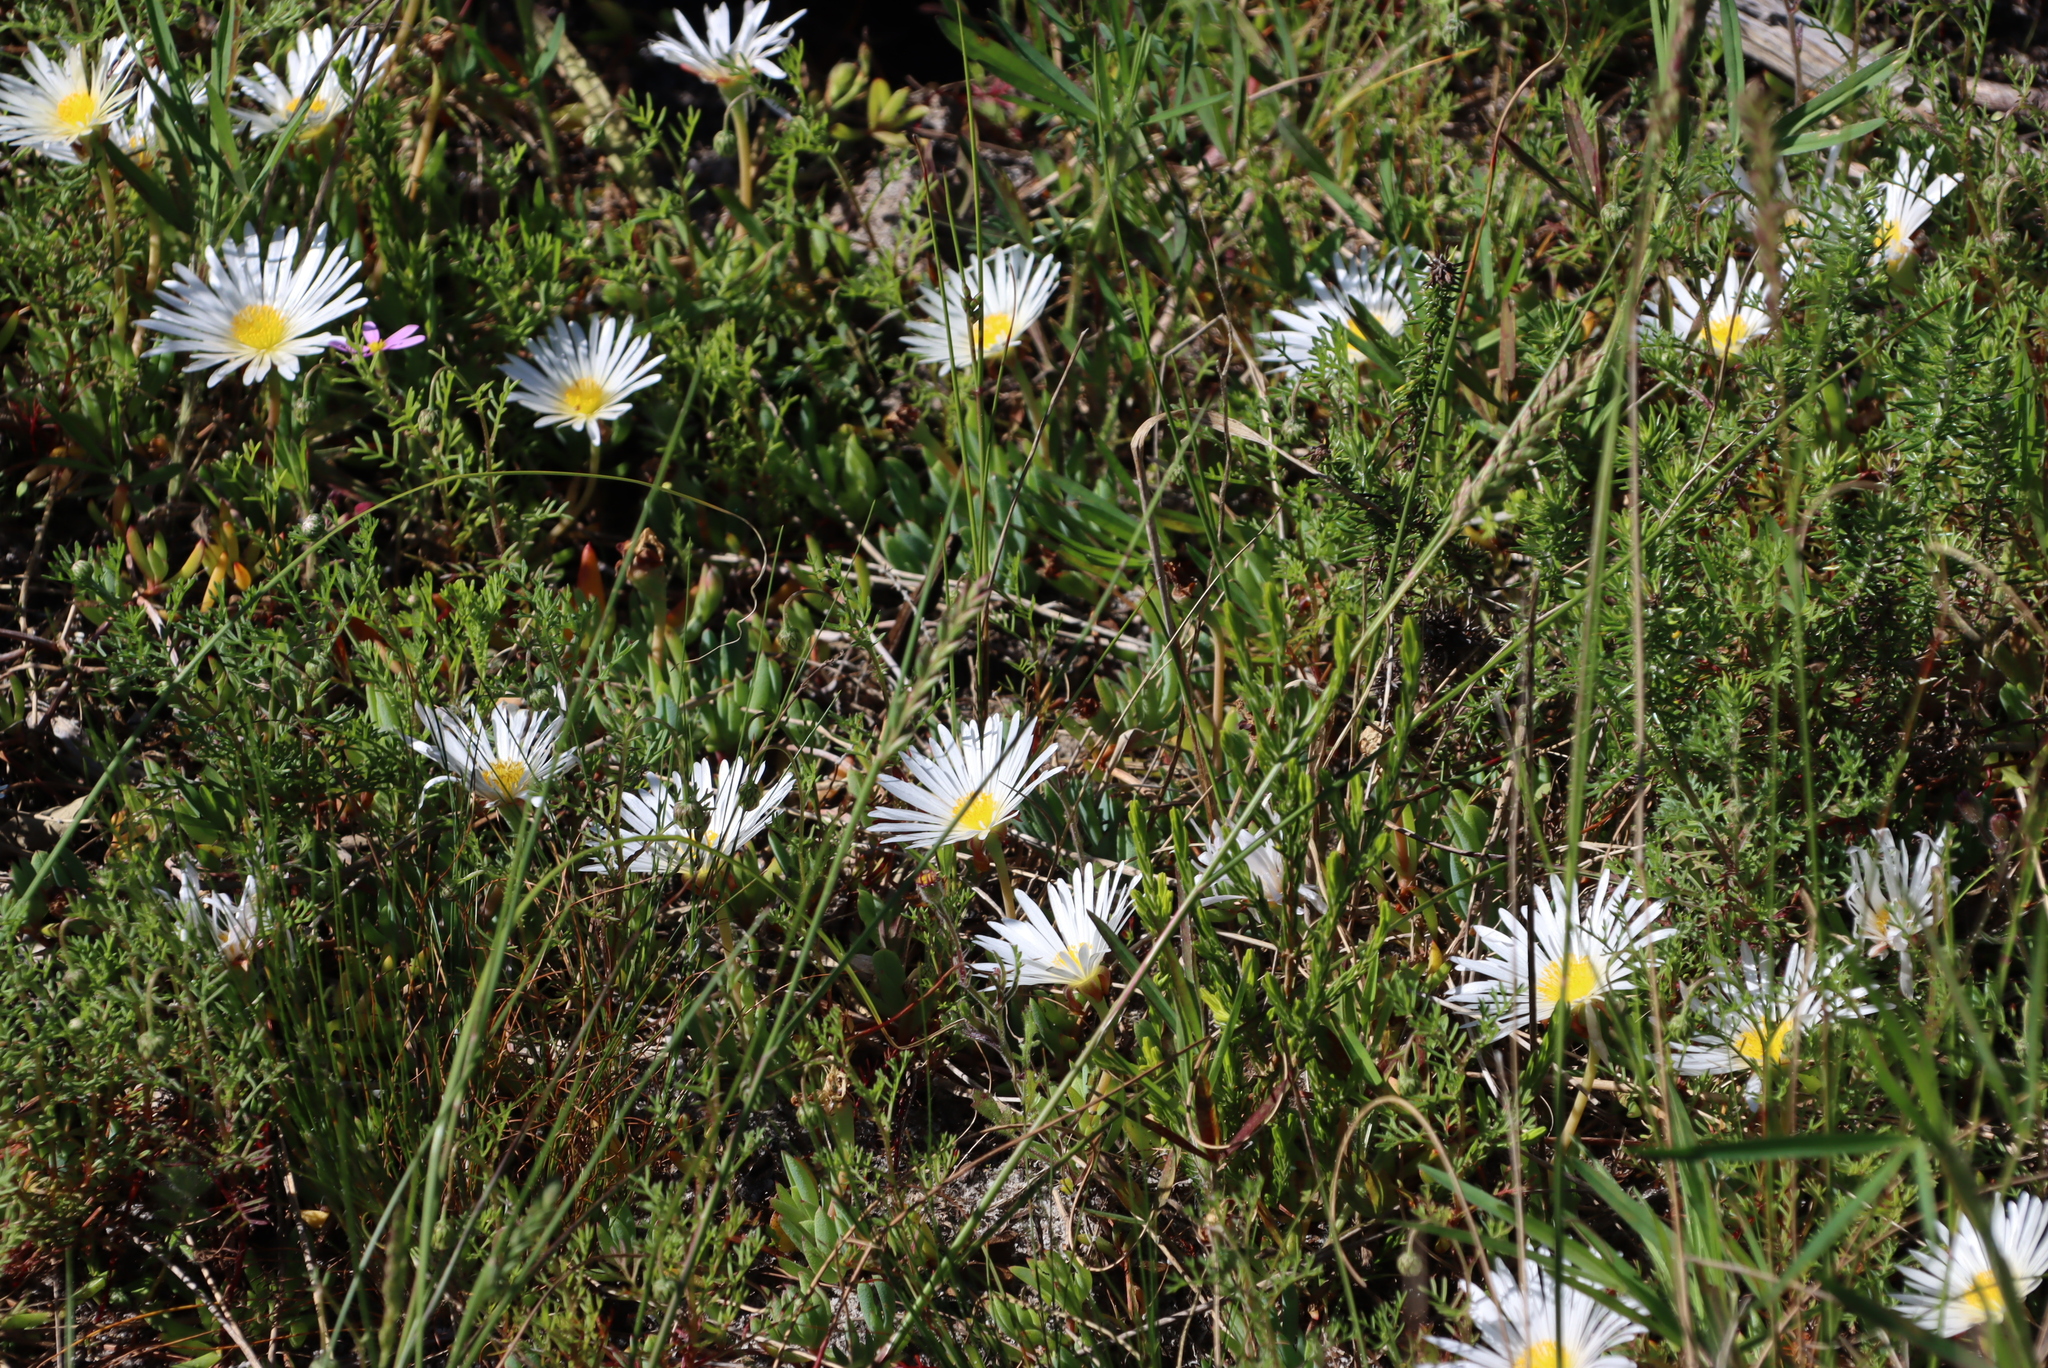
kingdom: Plantae
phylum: Tracheophyta
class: Magnoliopsida
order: Caryophyllales
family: Aizoaceae
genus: Lampranthus
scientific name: Lampranthus reptans
